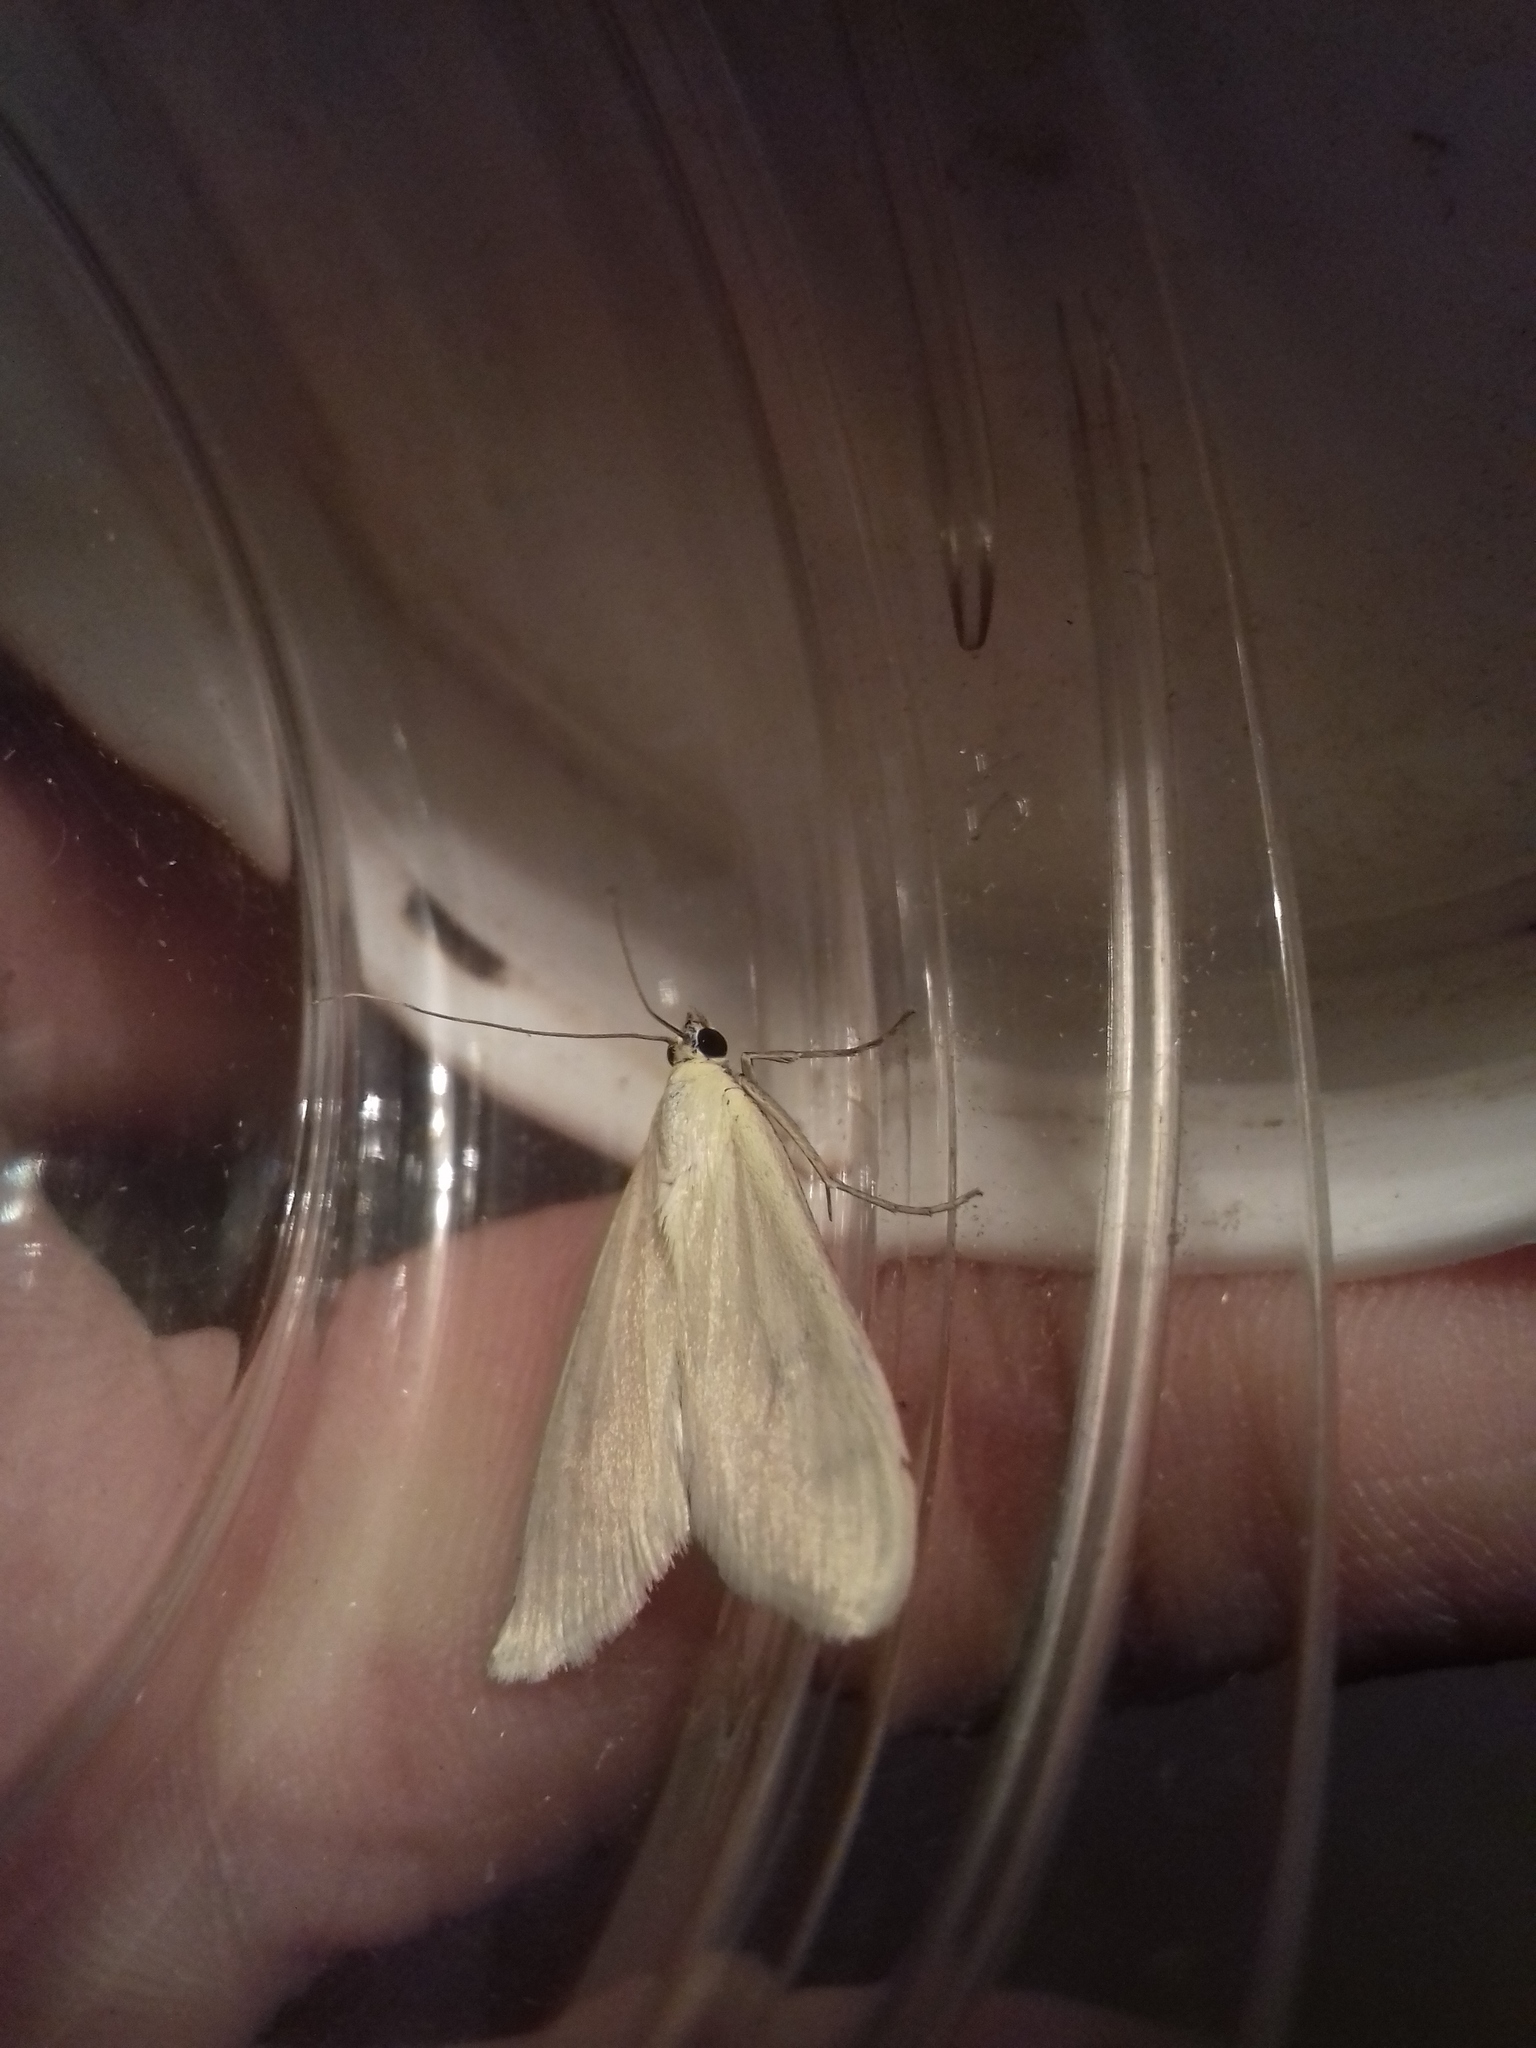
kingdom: Animalia
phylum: Arthropoda
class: Insecta
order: Lepidoptera
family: Crambidae
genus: Sitochroa
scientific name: Sitochroa palealis
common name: Greenish-yellow sitochroa moth
